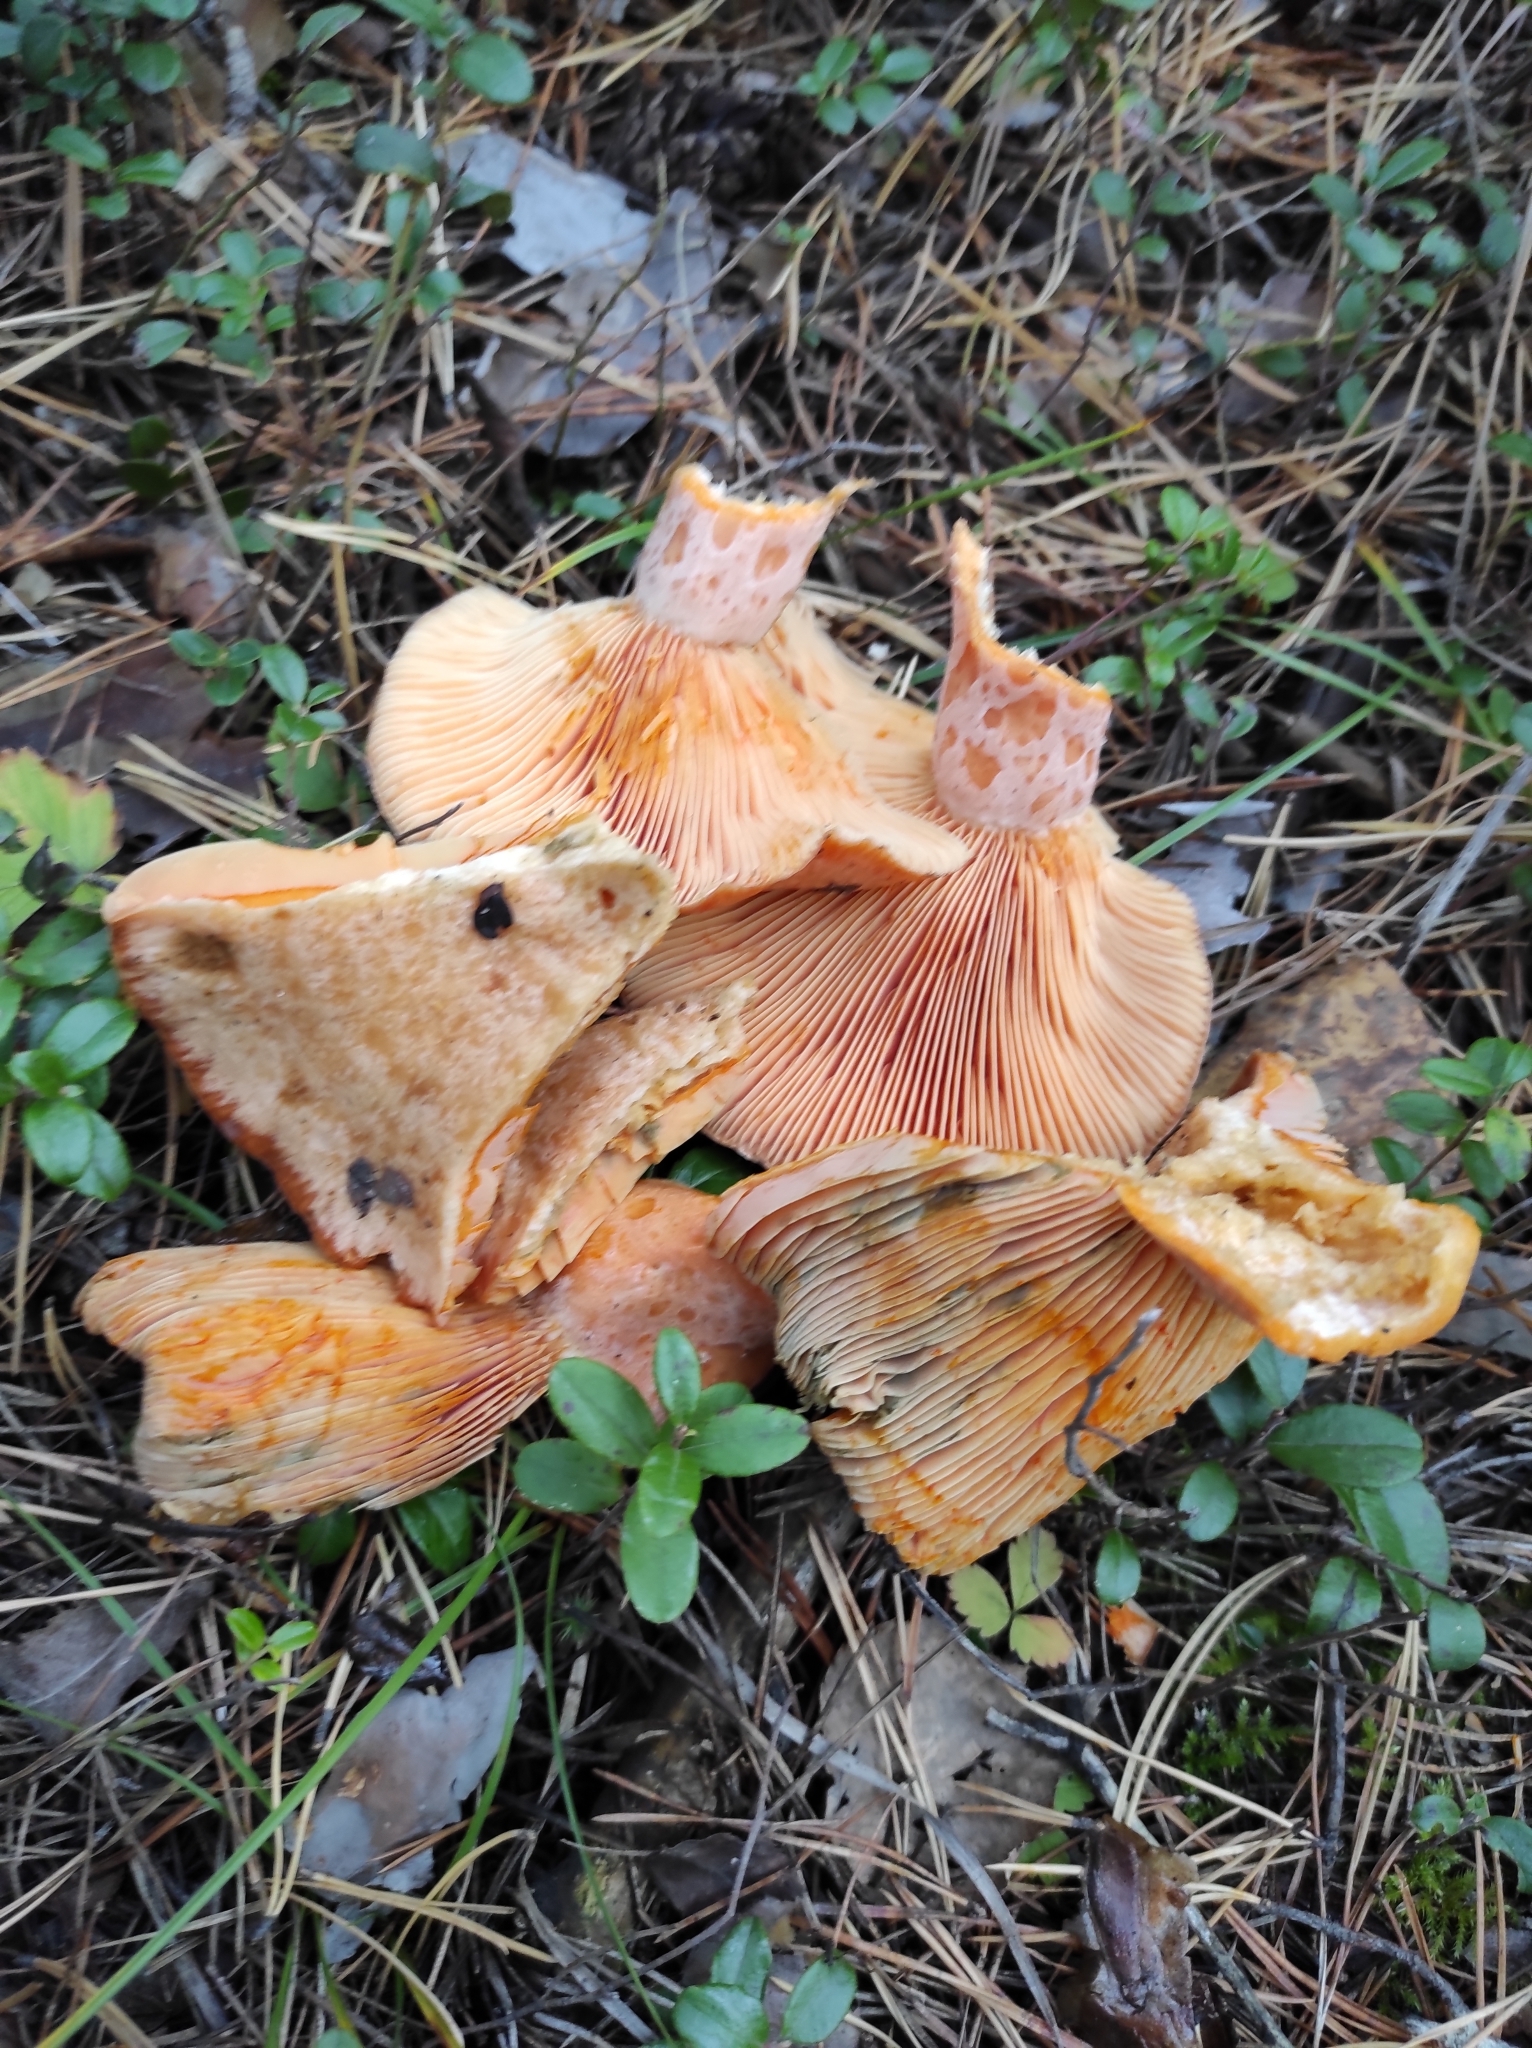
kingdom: Fungi
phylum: Basidiomycota
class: Agaricomycetes
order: Russulales
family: Russulaceae
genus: Lactarius
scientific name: Lactarius deliciosus
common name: Saffron milk-cap
